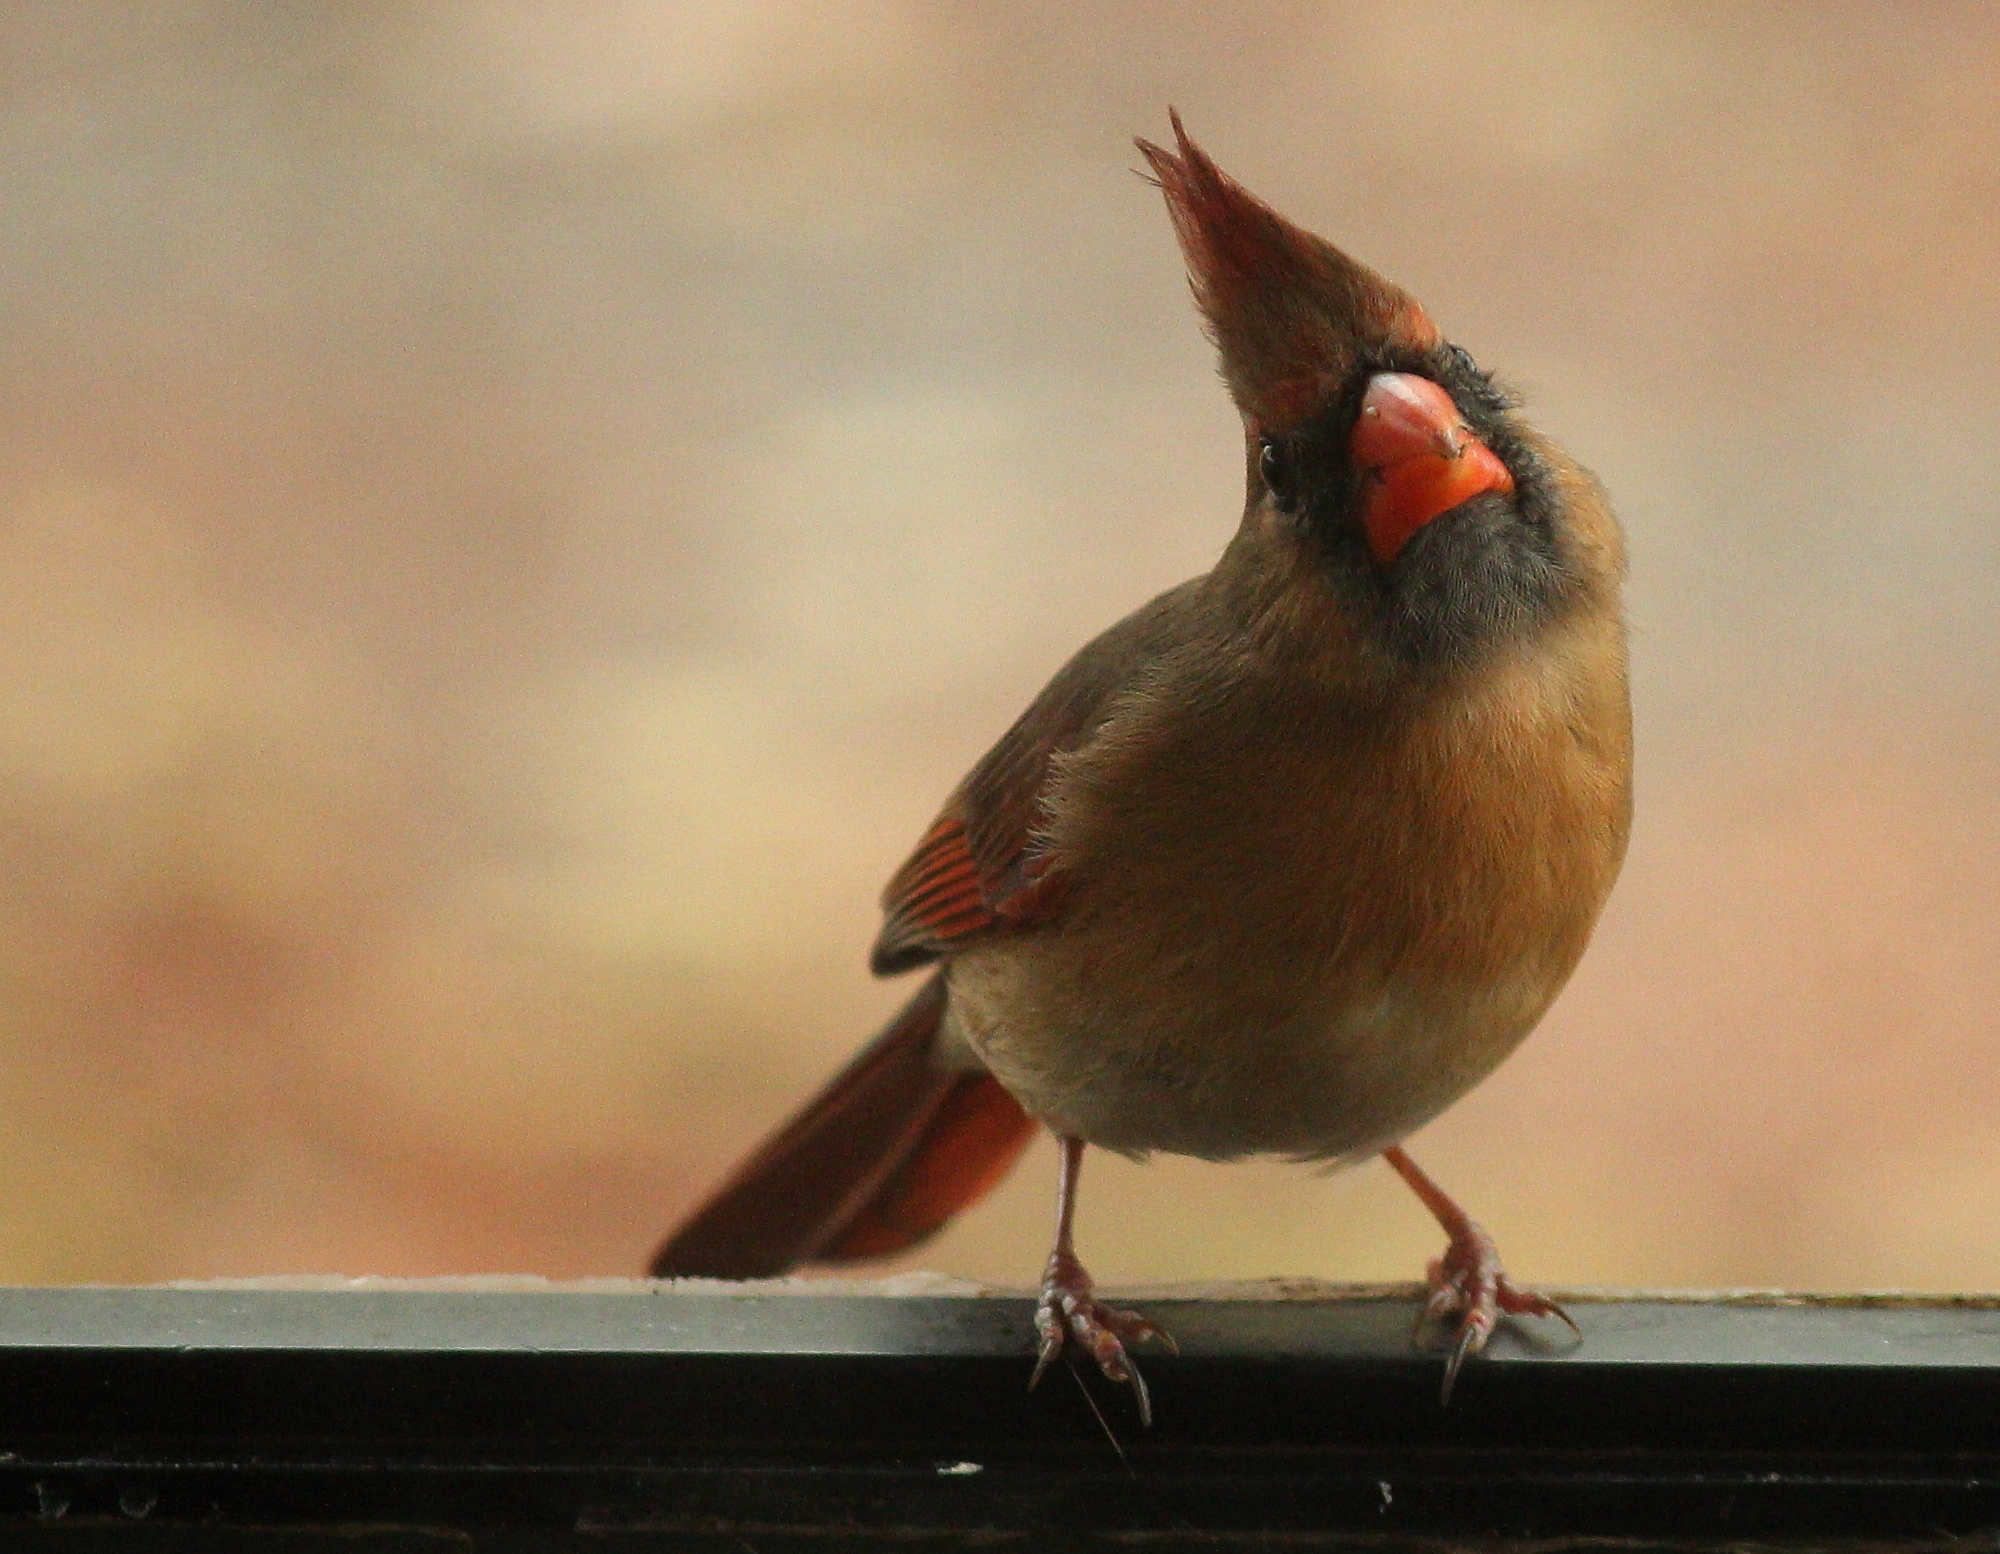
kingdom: Animalia
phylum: Chordata
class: Aves
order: Passeriformes
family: Cardinalidae
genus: Cardinalis
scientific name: Cardinalis cardinalis
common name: Northern cardinal
